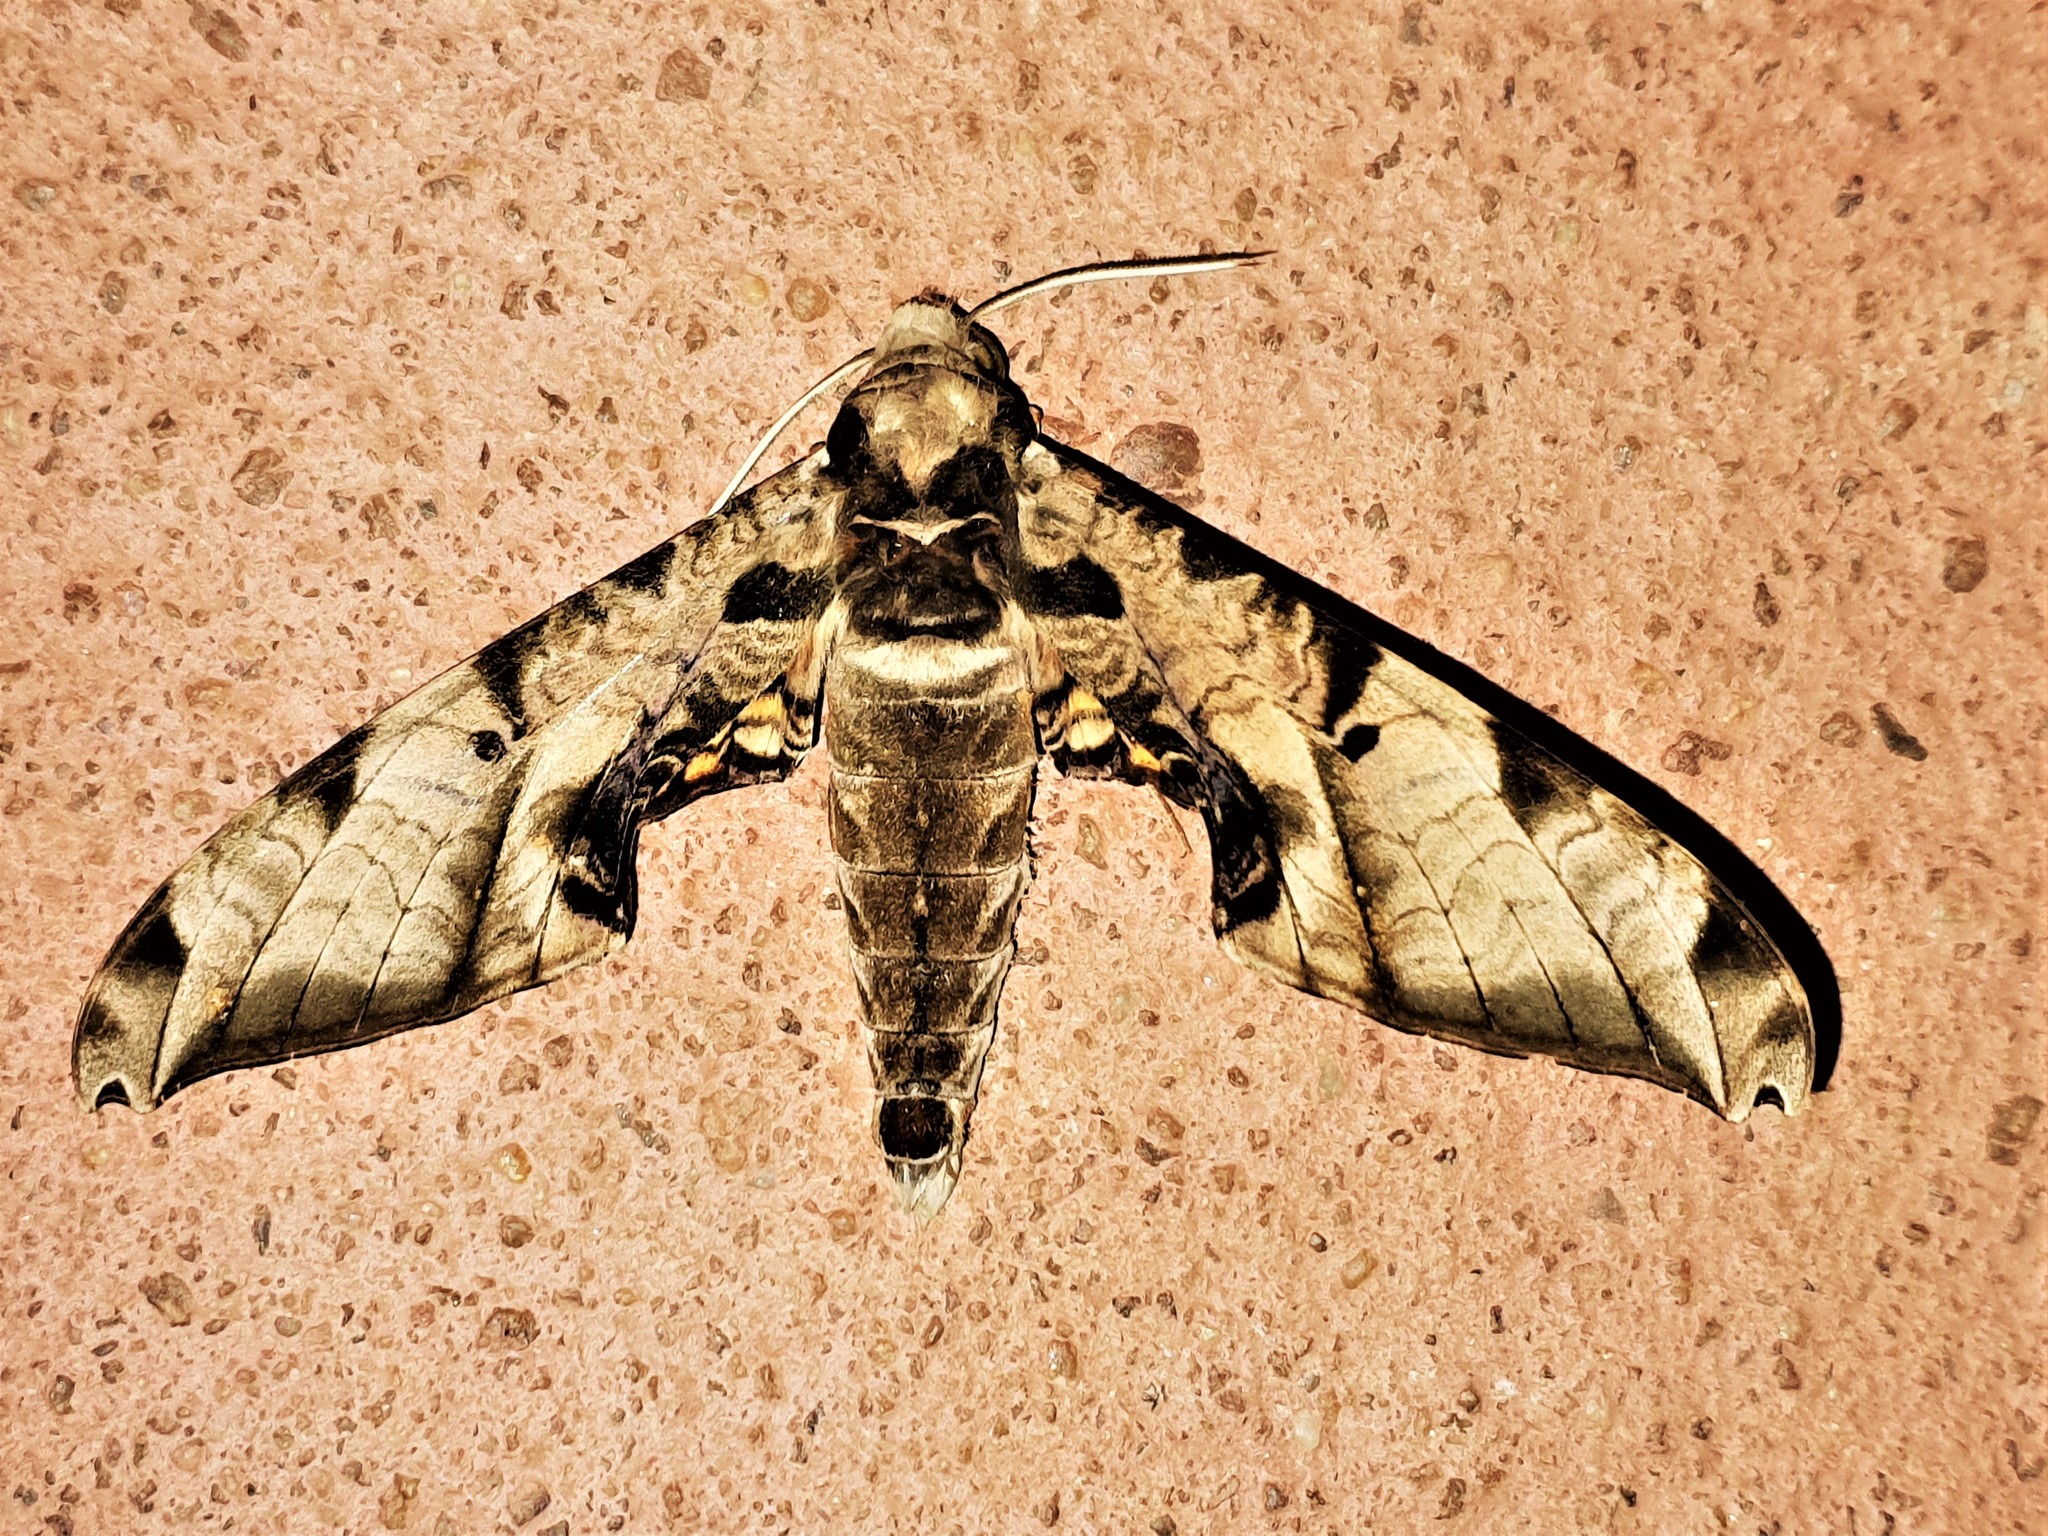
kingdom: Animalia
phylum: Arthropoda
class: Insecta
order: Lepidoptera
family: Sphingidae
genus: Protambulyx
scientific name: Protambulyx eurycles
